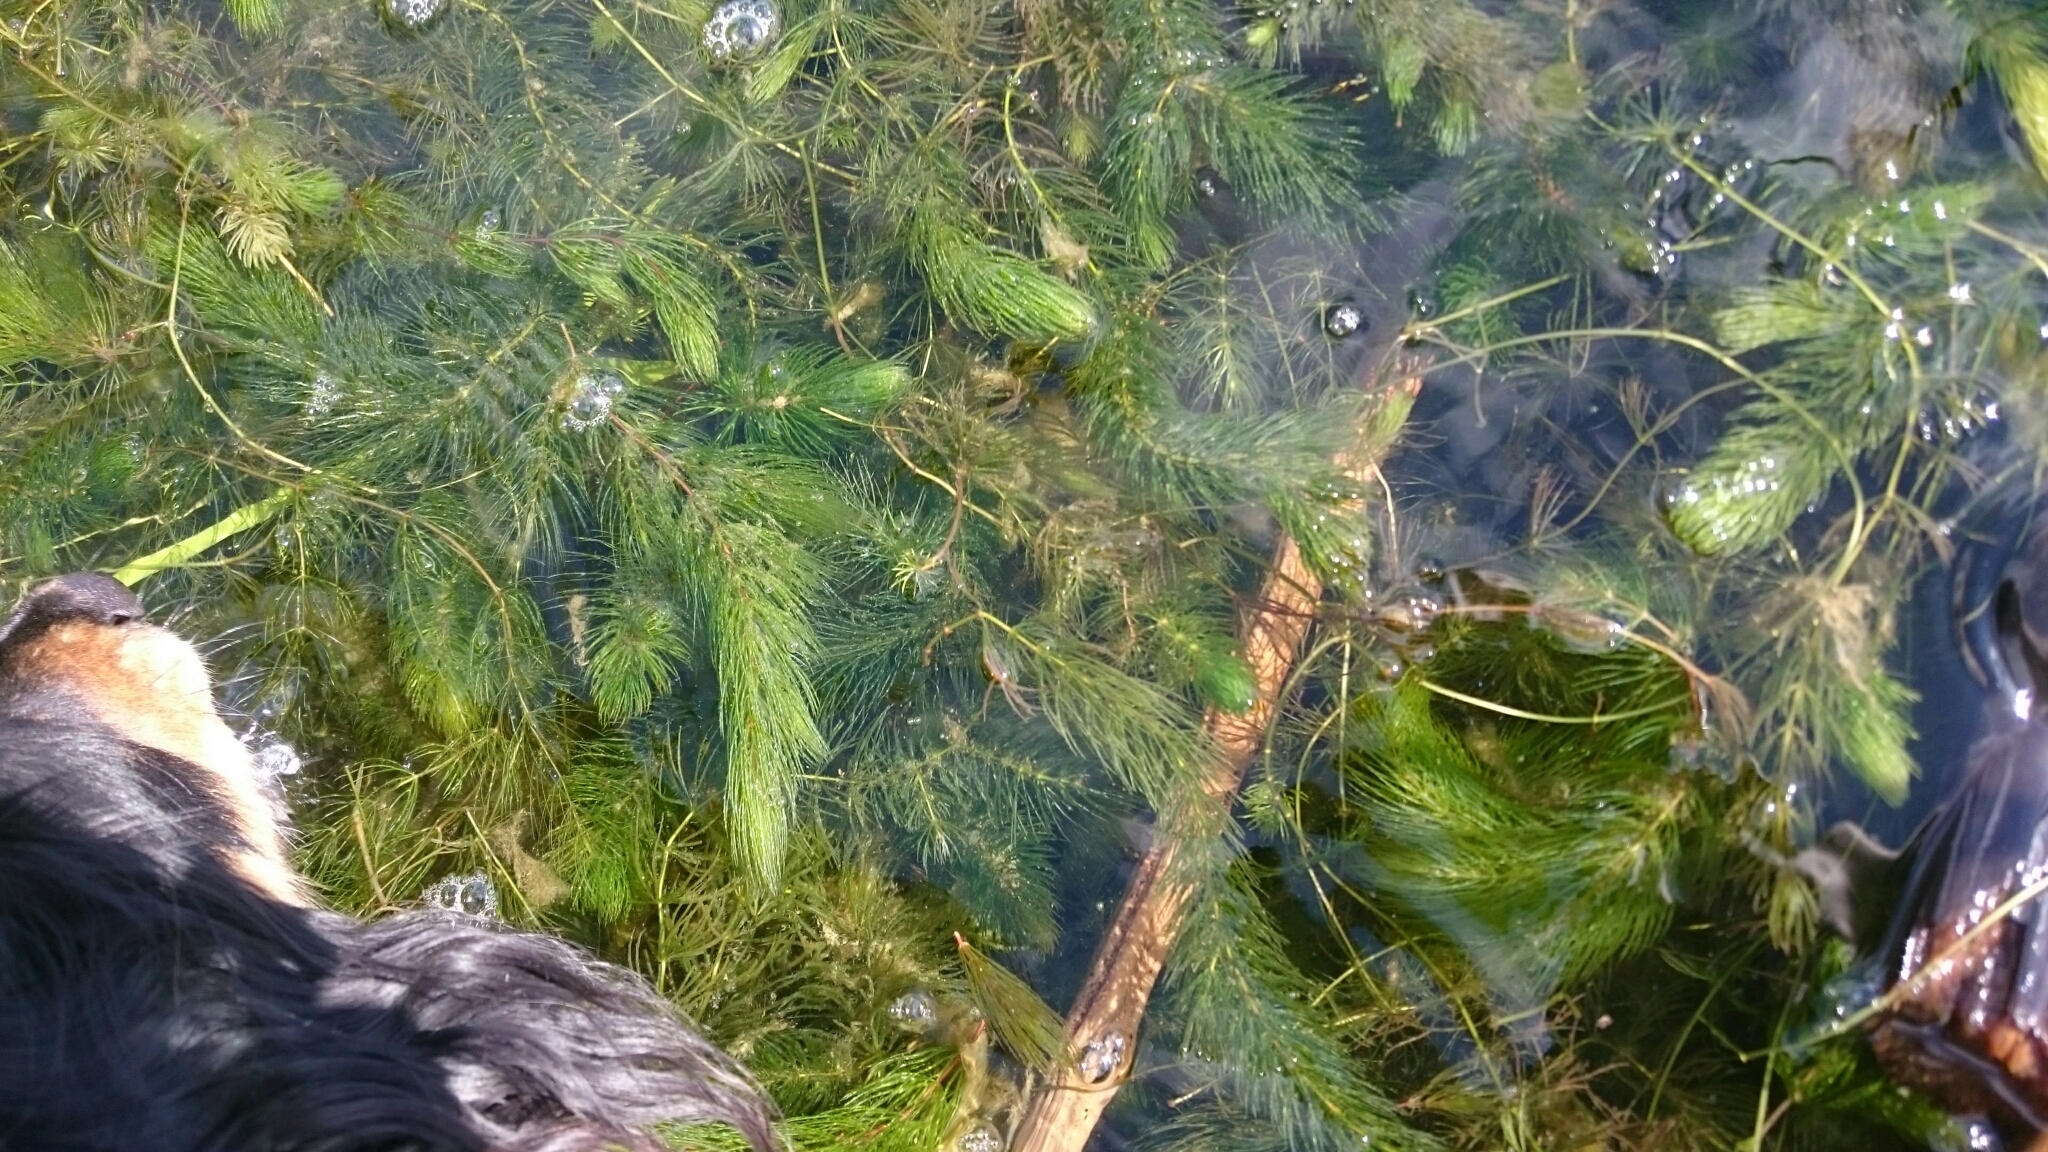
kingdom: Plantae
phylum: Tracheophyta
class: Magnoliopsida
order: Ceratophyllales
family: Ceratophyllaceae
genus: Ceratophyllum
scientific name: Ceratophyllum demersum
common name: Rigid hornwort
